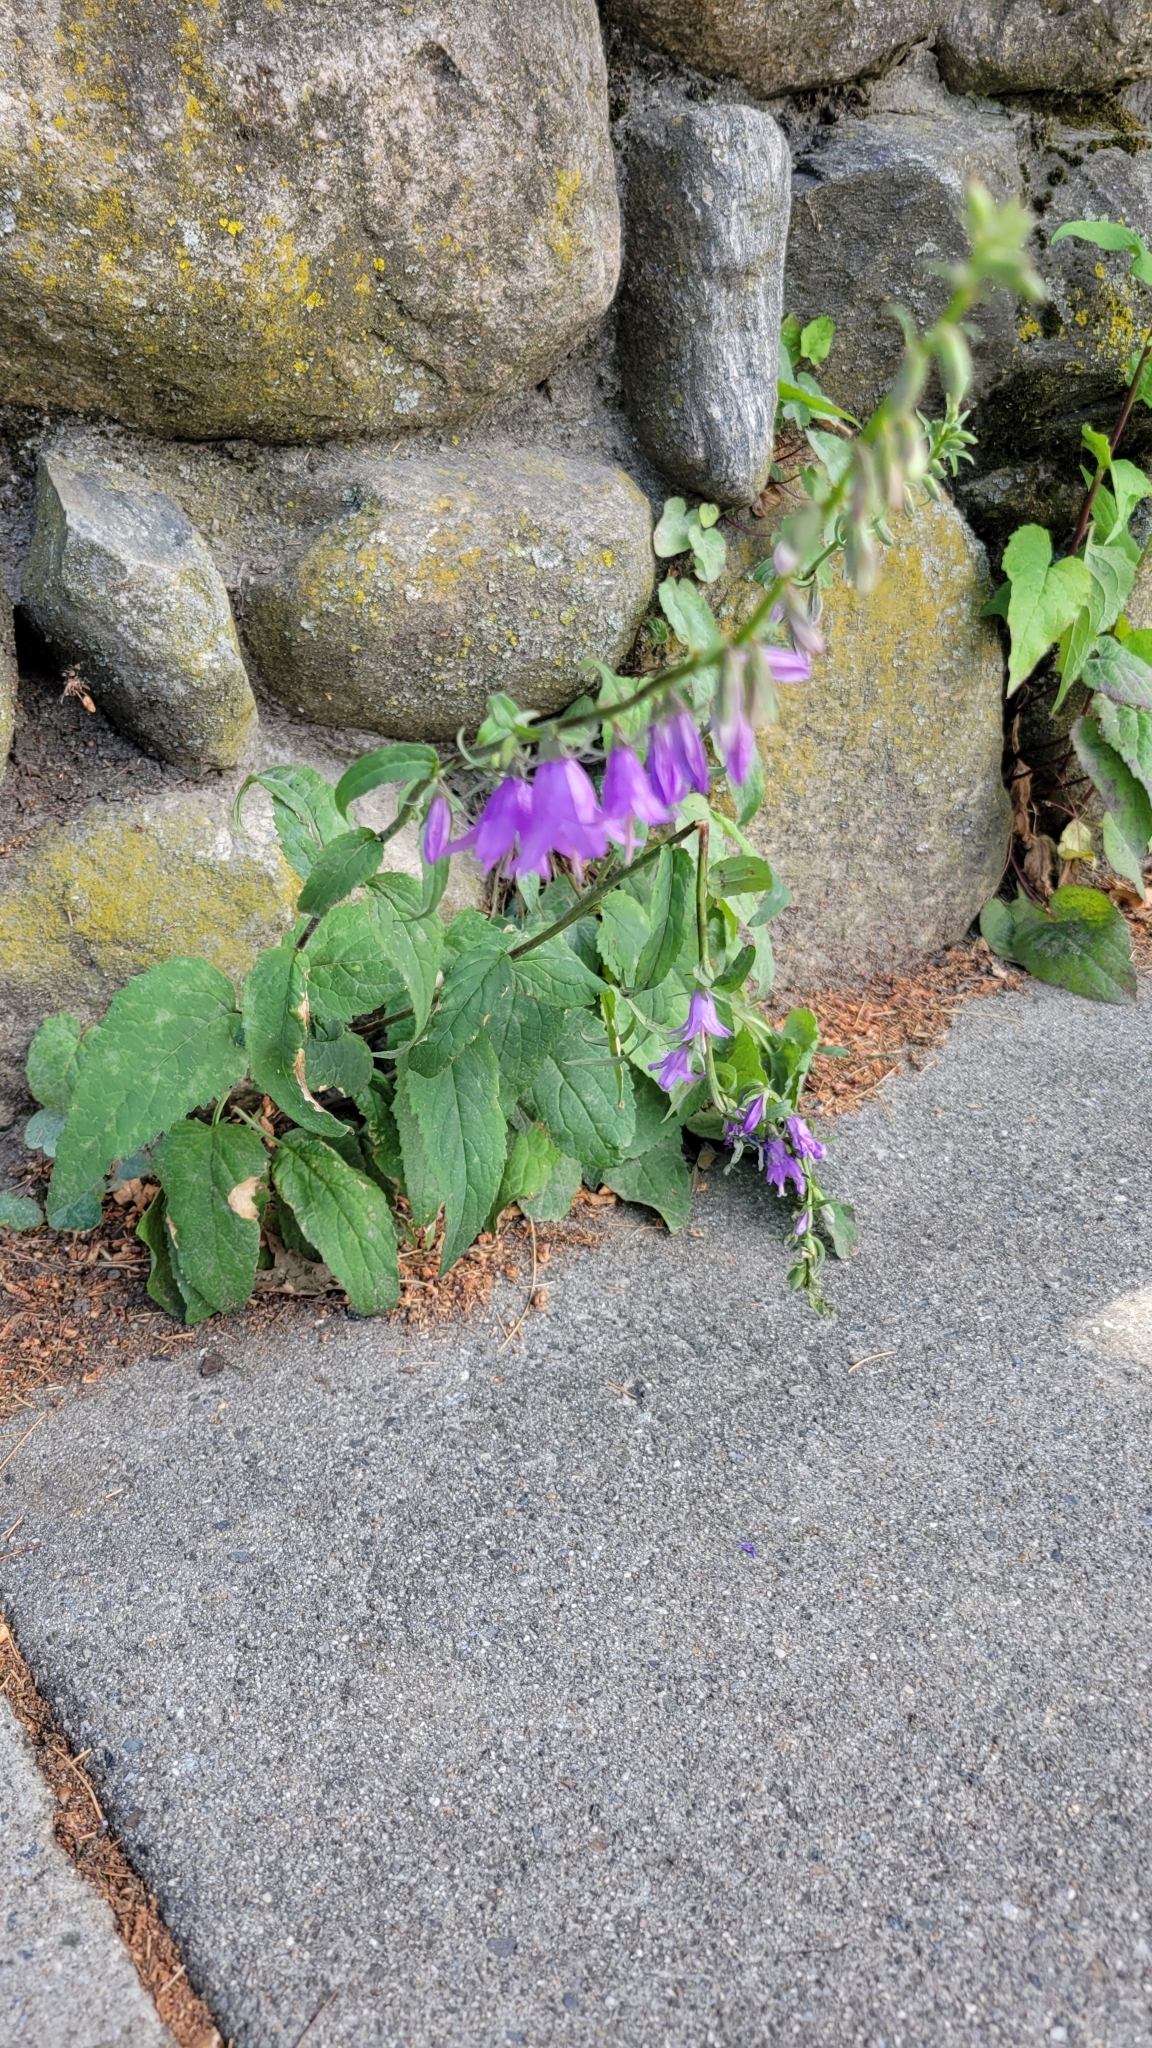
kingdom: Plantae
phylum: Tracheophyta
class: Magnoliopsida
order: Asterales
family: Campanulaceae
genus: Campanula
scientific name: Campanula rapunculoides
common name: Creeping bellflower
